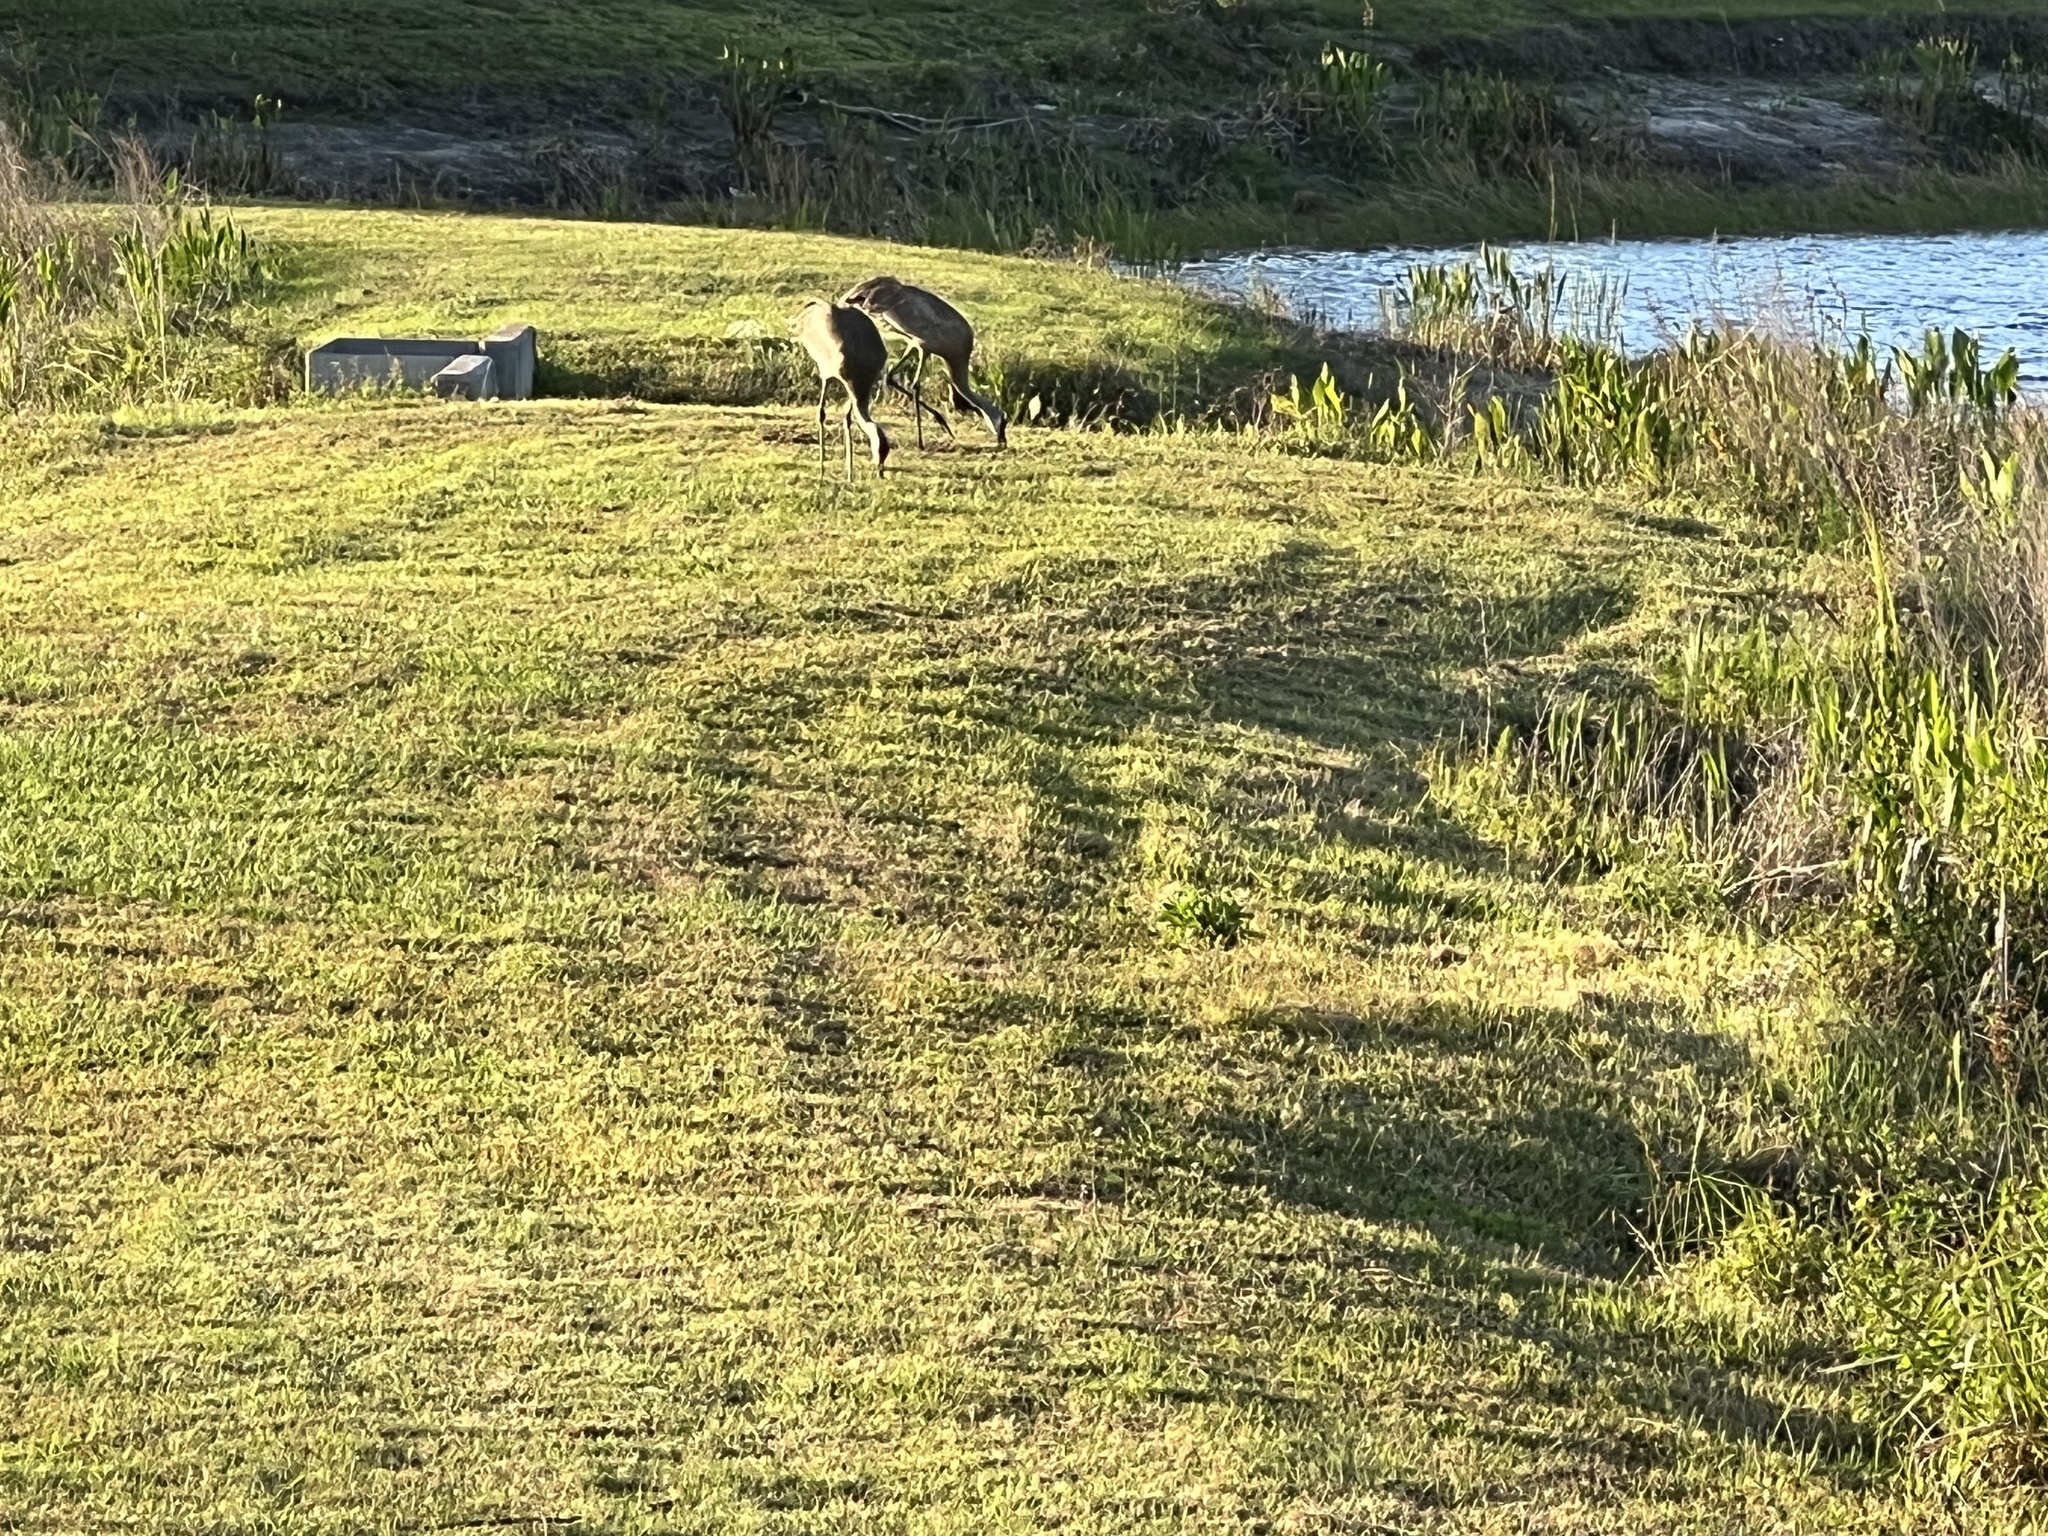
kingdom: Animalia
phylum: Chordata
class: Aves
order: Gruiformes
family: Gruidae
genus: Grus
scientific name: Grus canadensis
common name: Sandhill crane
